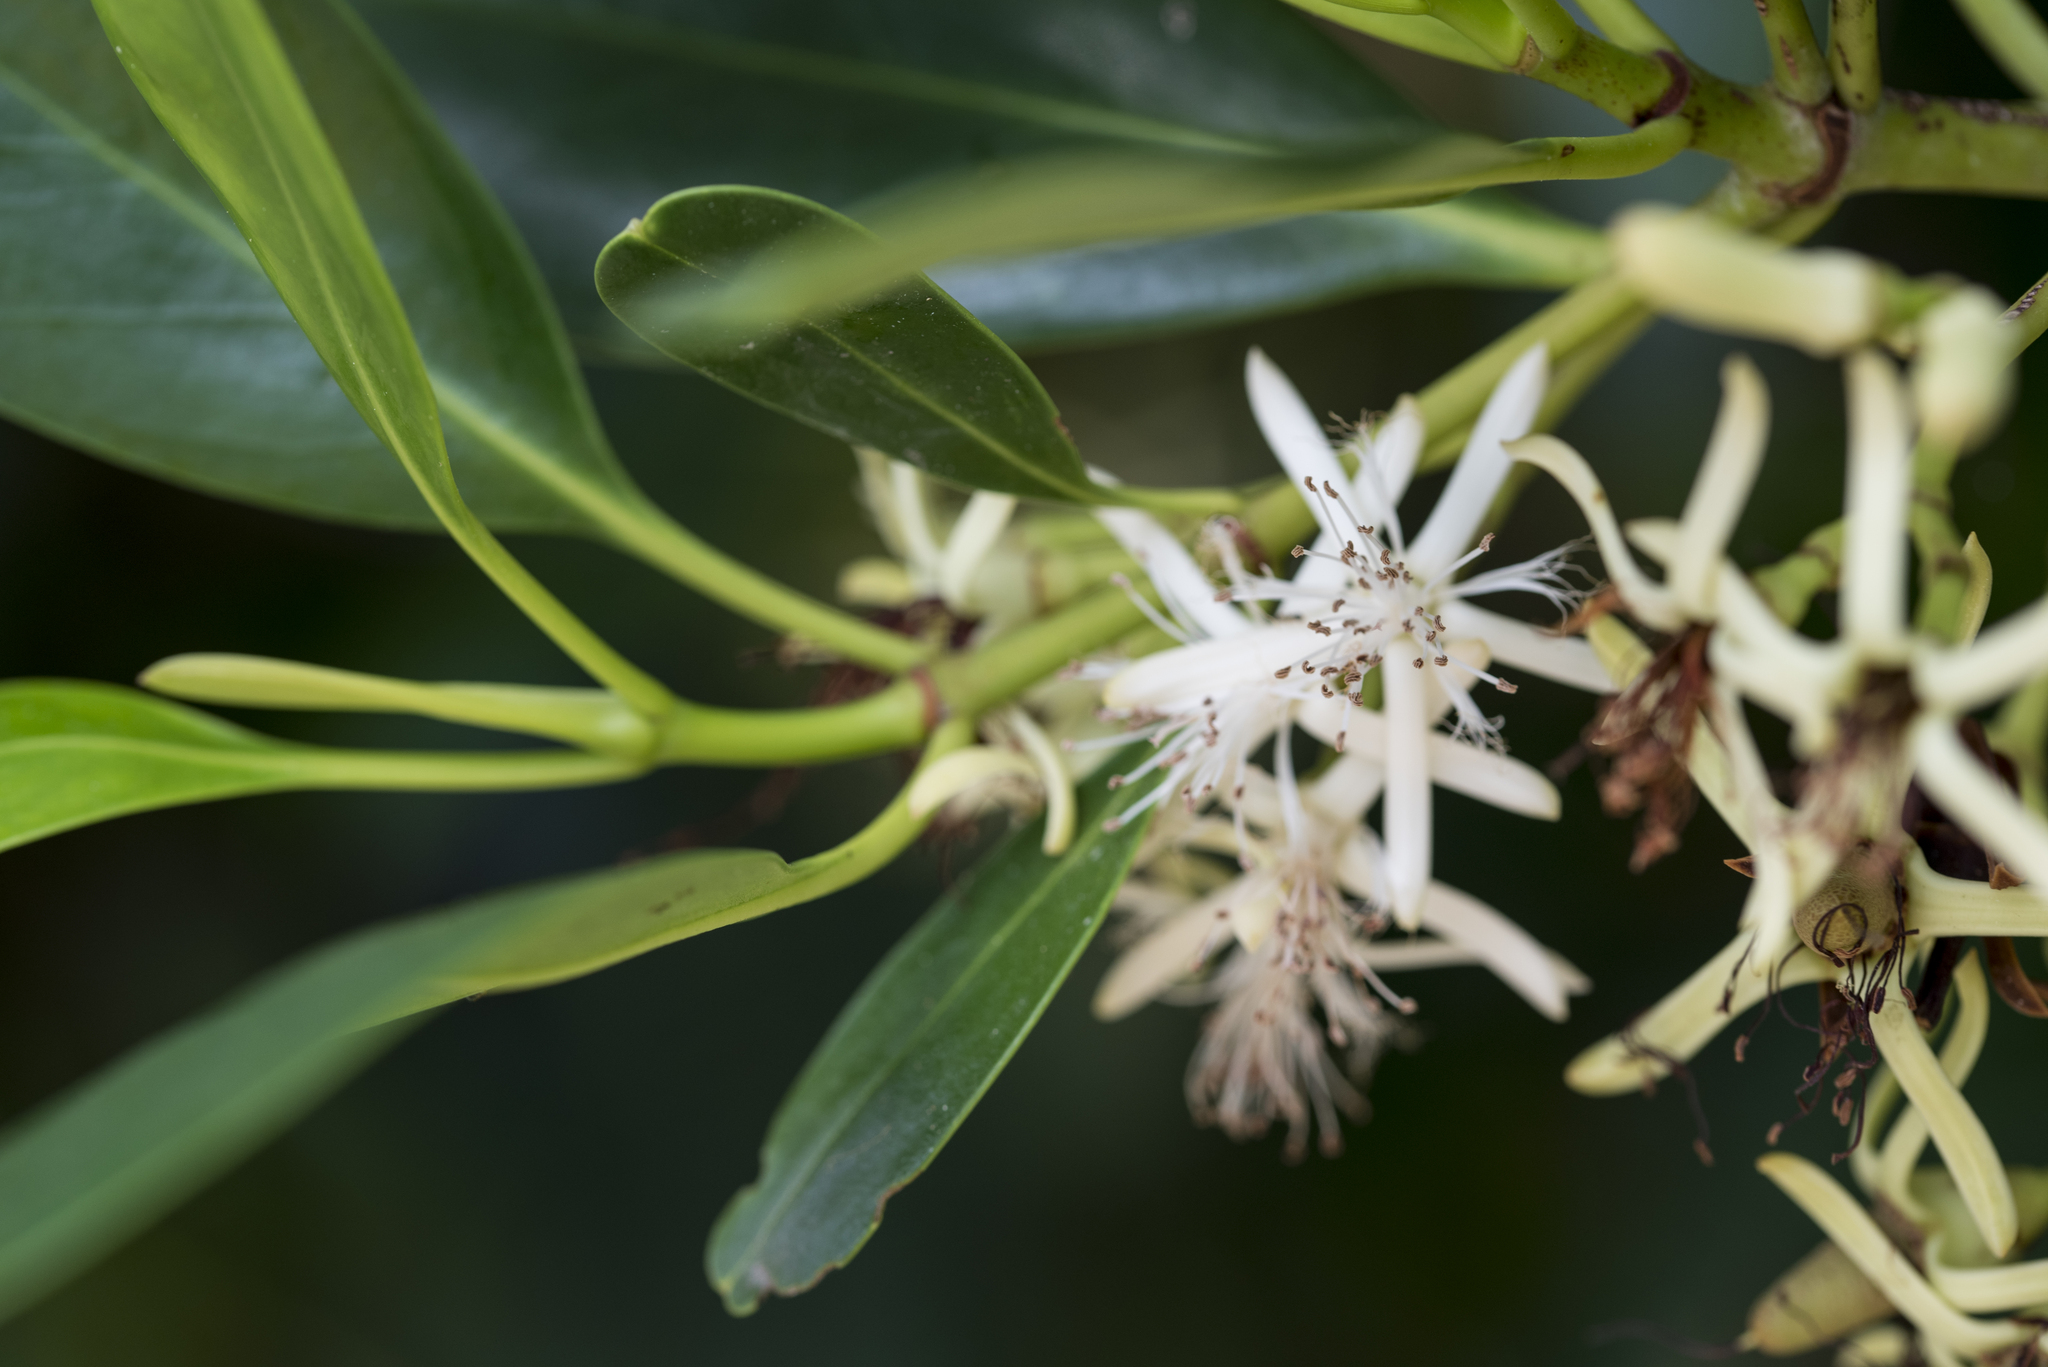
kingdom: Plantae
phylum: Tracheophyta
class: Magnoliopsida
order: Malpighiales
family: Rhizophoraceae
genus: Kandelia
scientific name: Kandelia obovata
